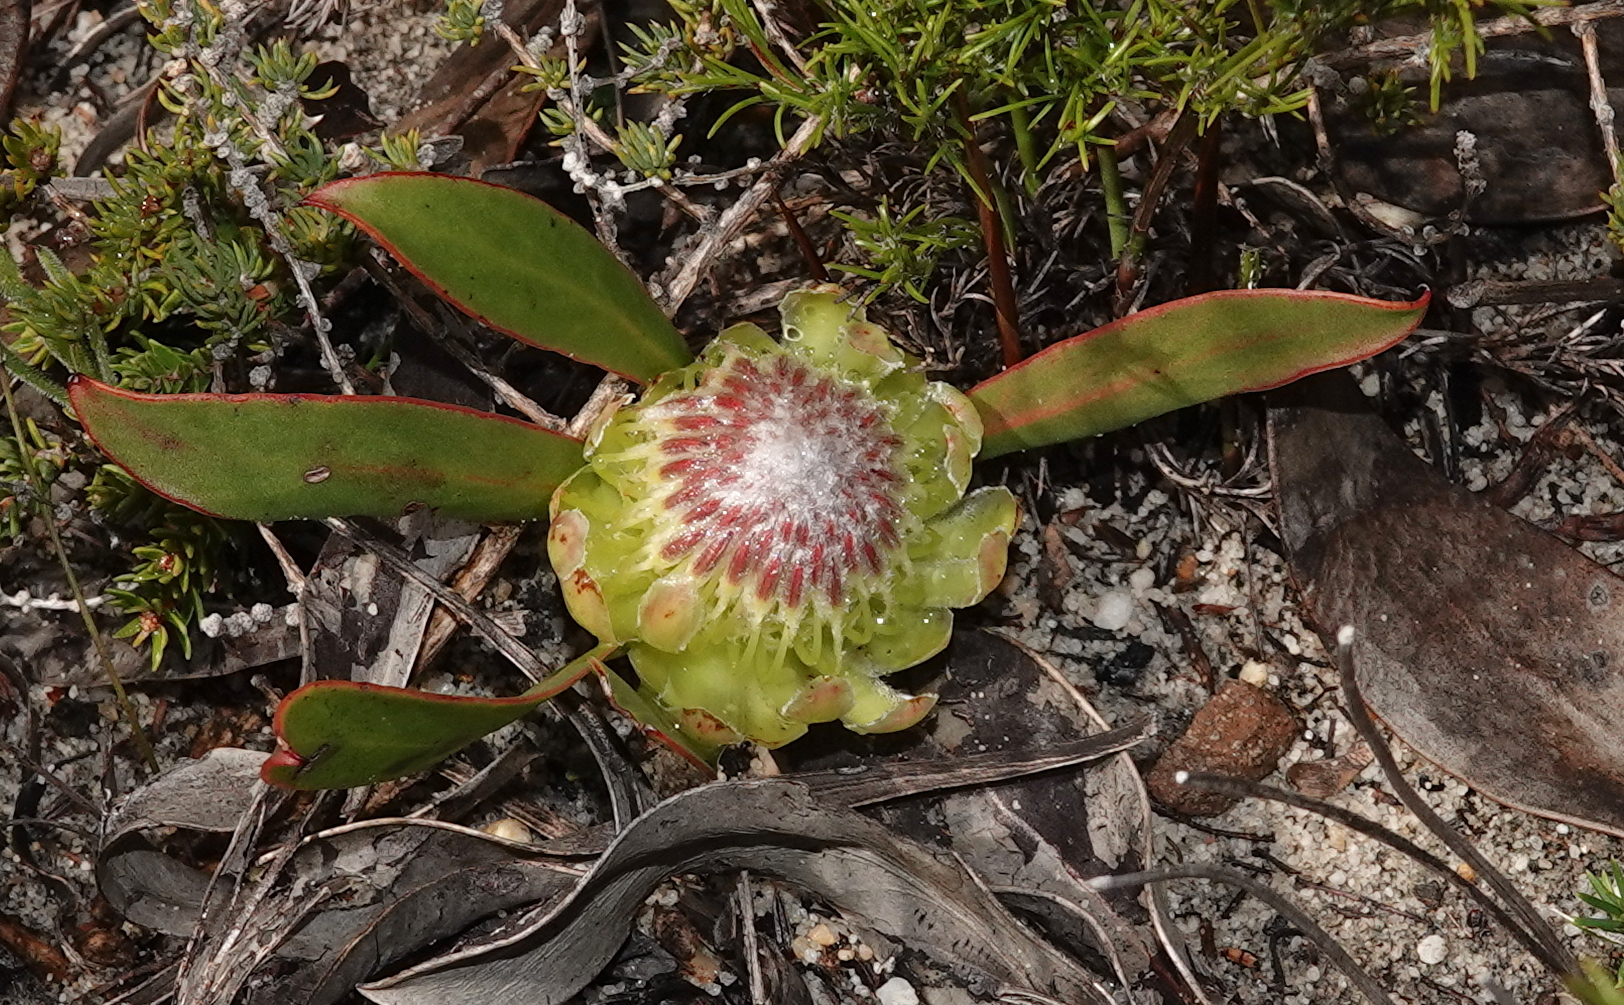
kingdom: Plantae
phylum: Tracheophyta
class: Magnoliopsida
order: Proteales
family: Proteaceae
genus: Protea
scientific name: Protea acaulos
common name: Common ground sugarbush
